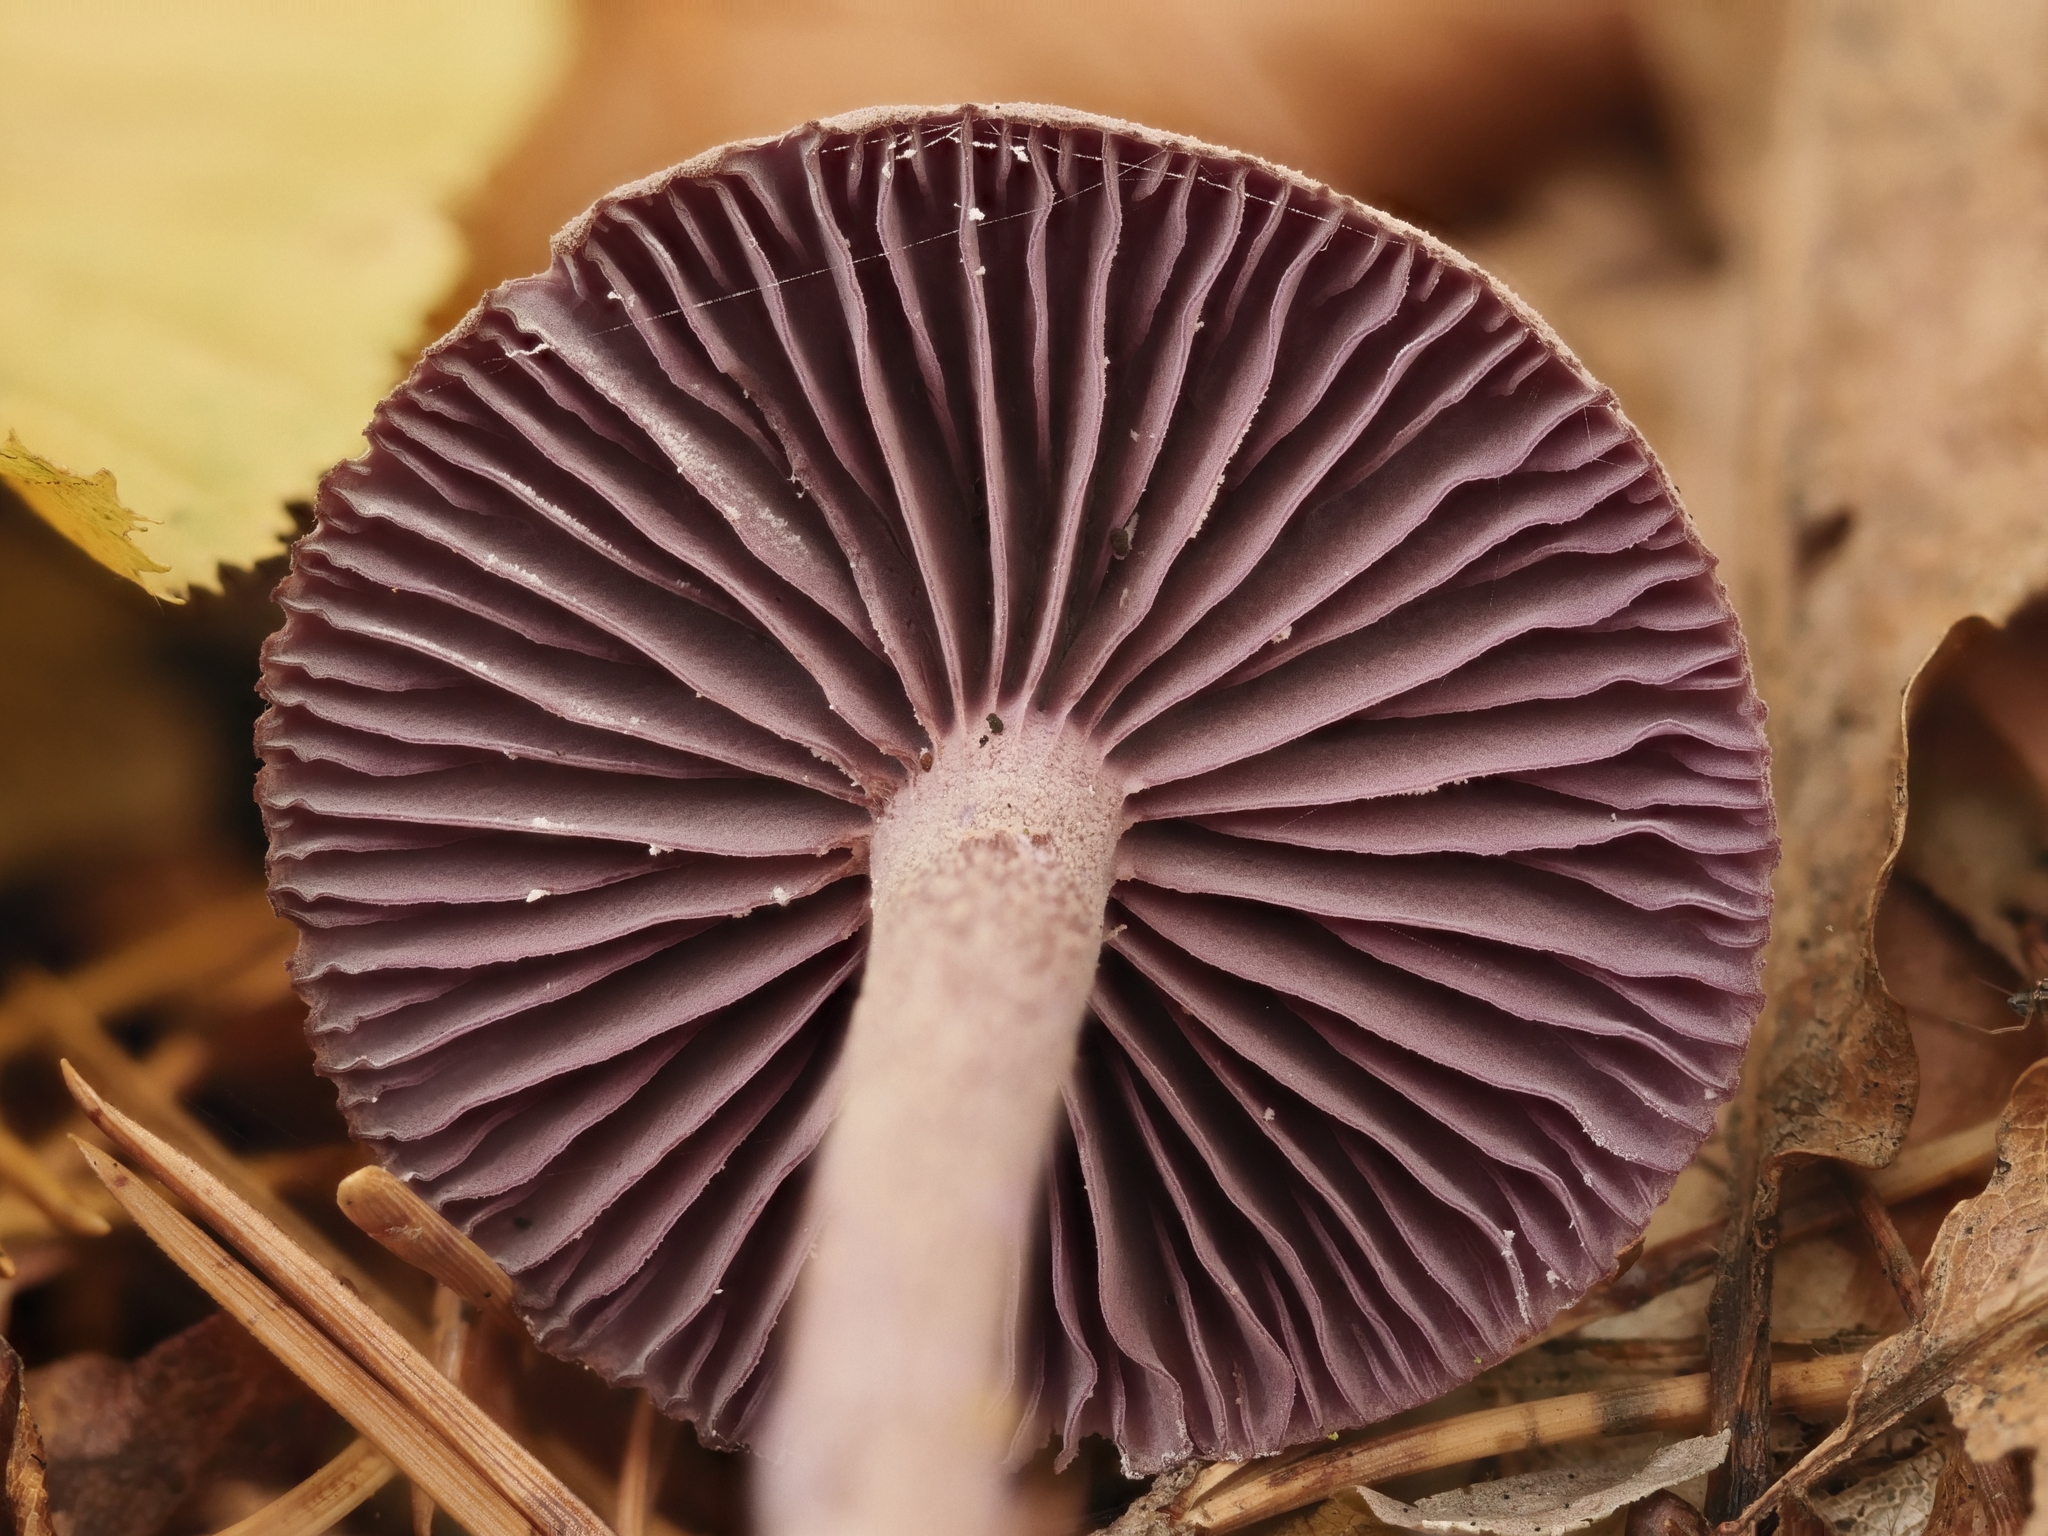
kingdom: Fungi
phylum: Basidiomycota
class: Agaricomycetes
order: Agaricales
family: Hydnangiaceae
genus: Laccaria
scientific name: Laccaria amethystina
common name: Amethyst deceiver
